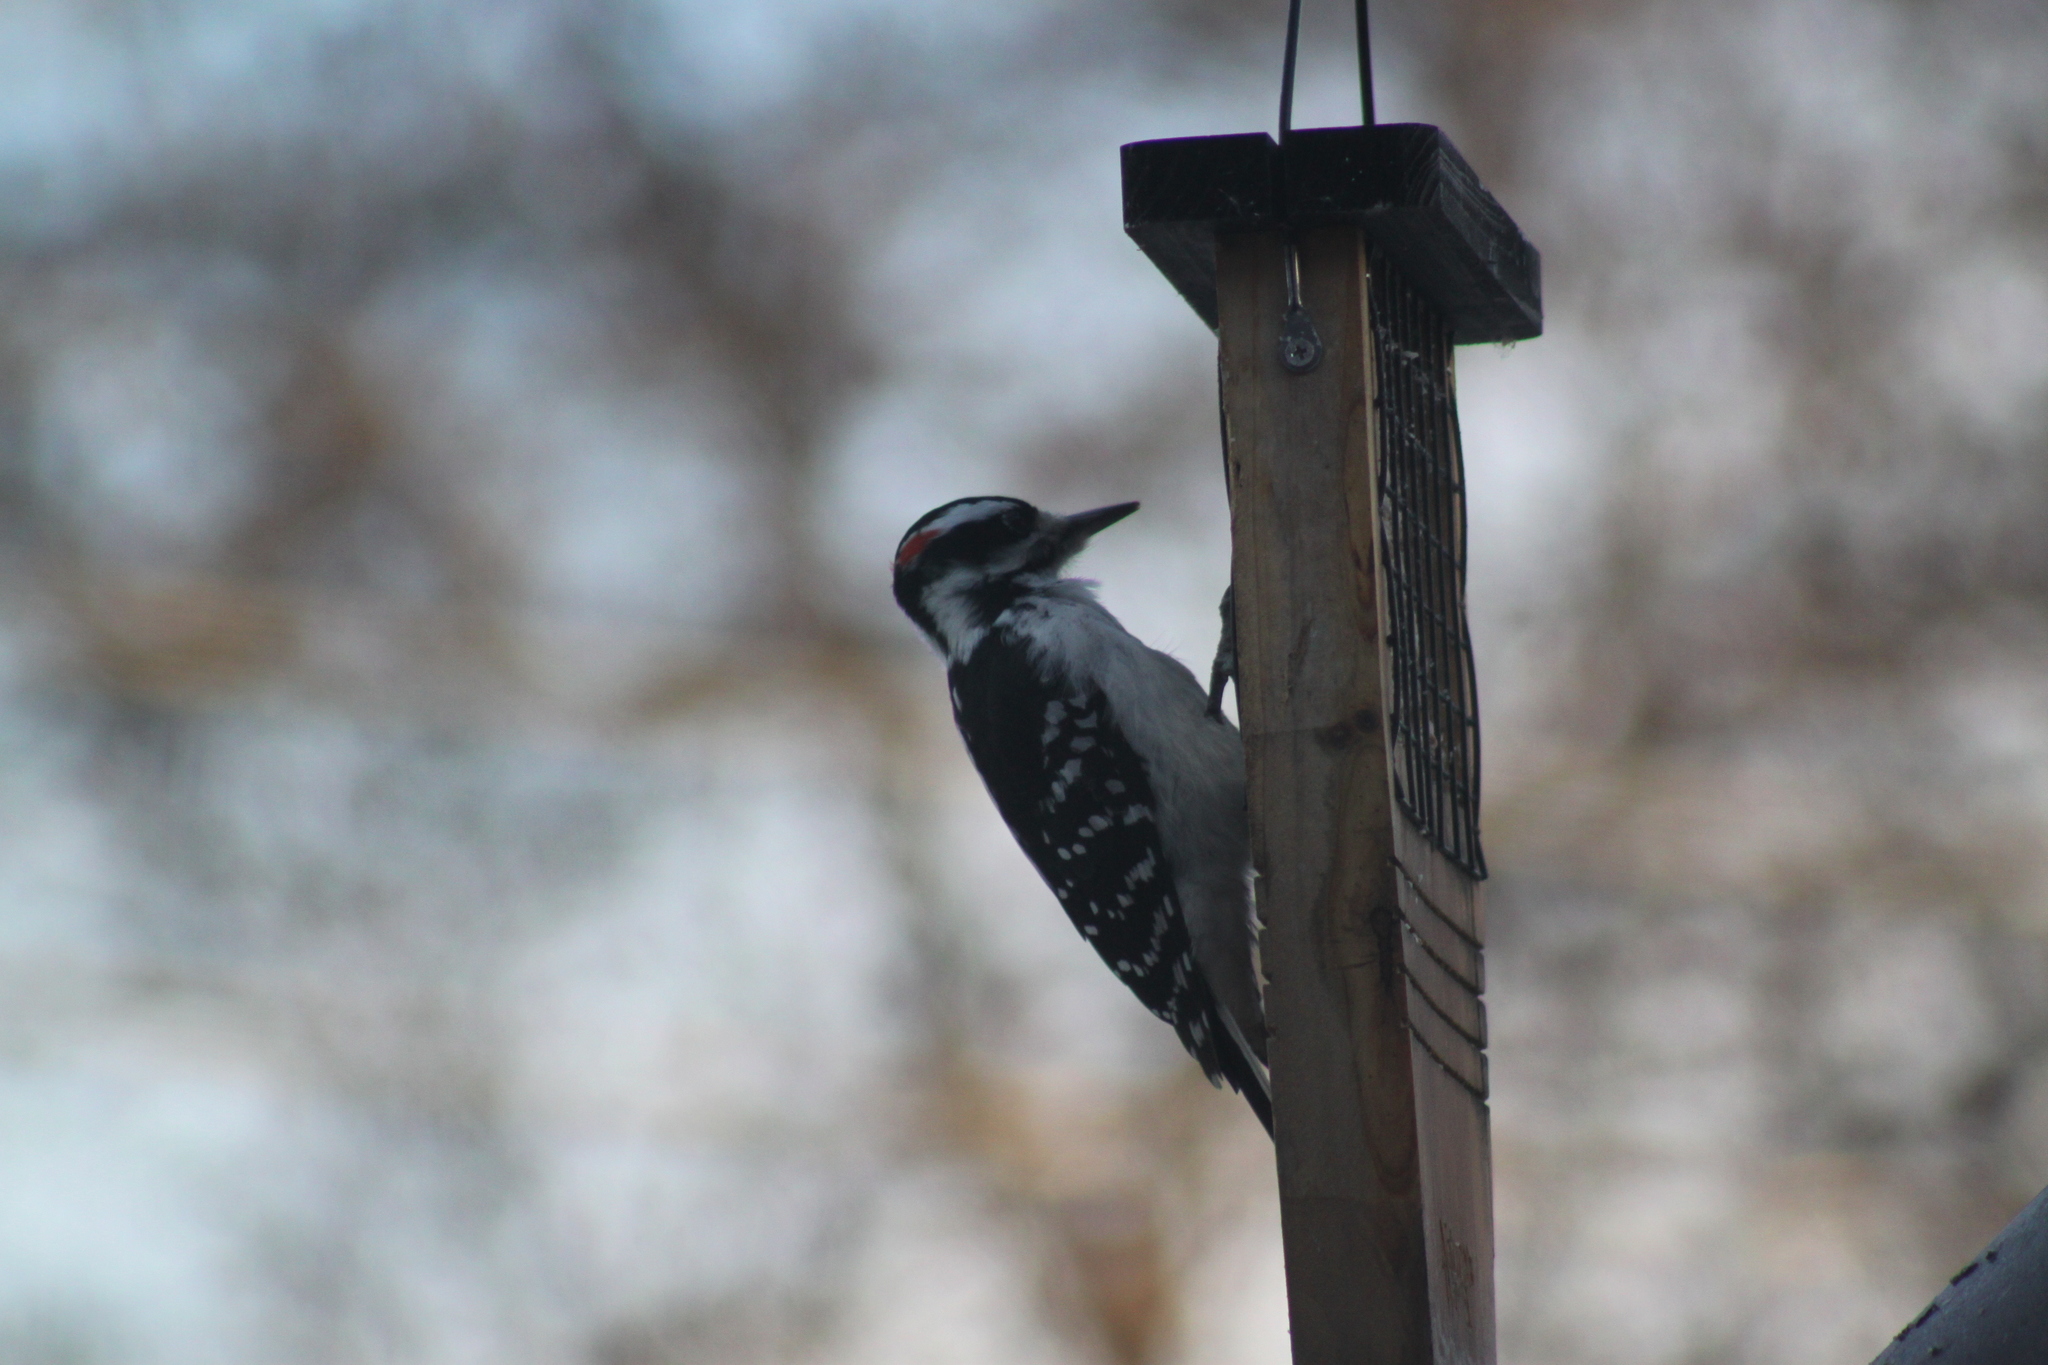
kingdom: Animalia
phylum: Chordata
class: Aves
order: Piciformes
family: Picidae
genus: Leuconotopicus
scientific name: Leuconotopicus villosus
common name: Hairy woodpecker
